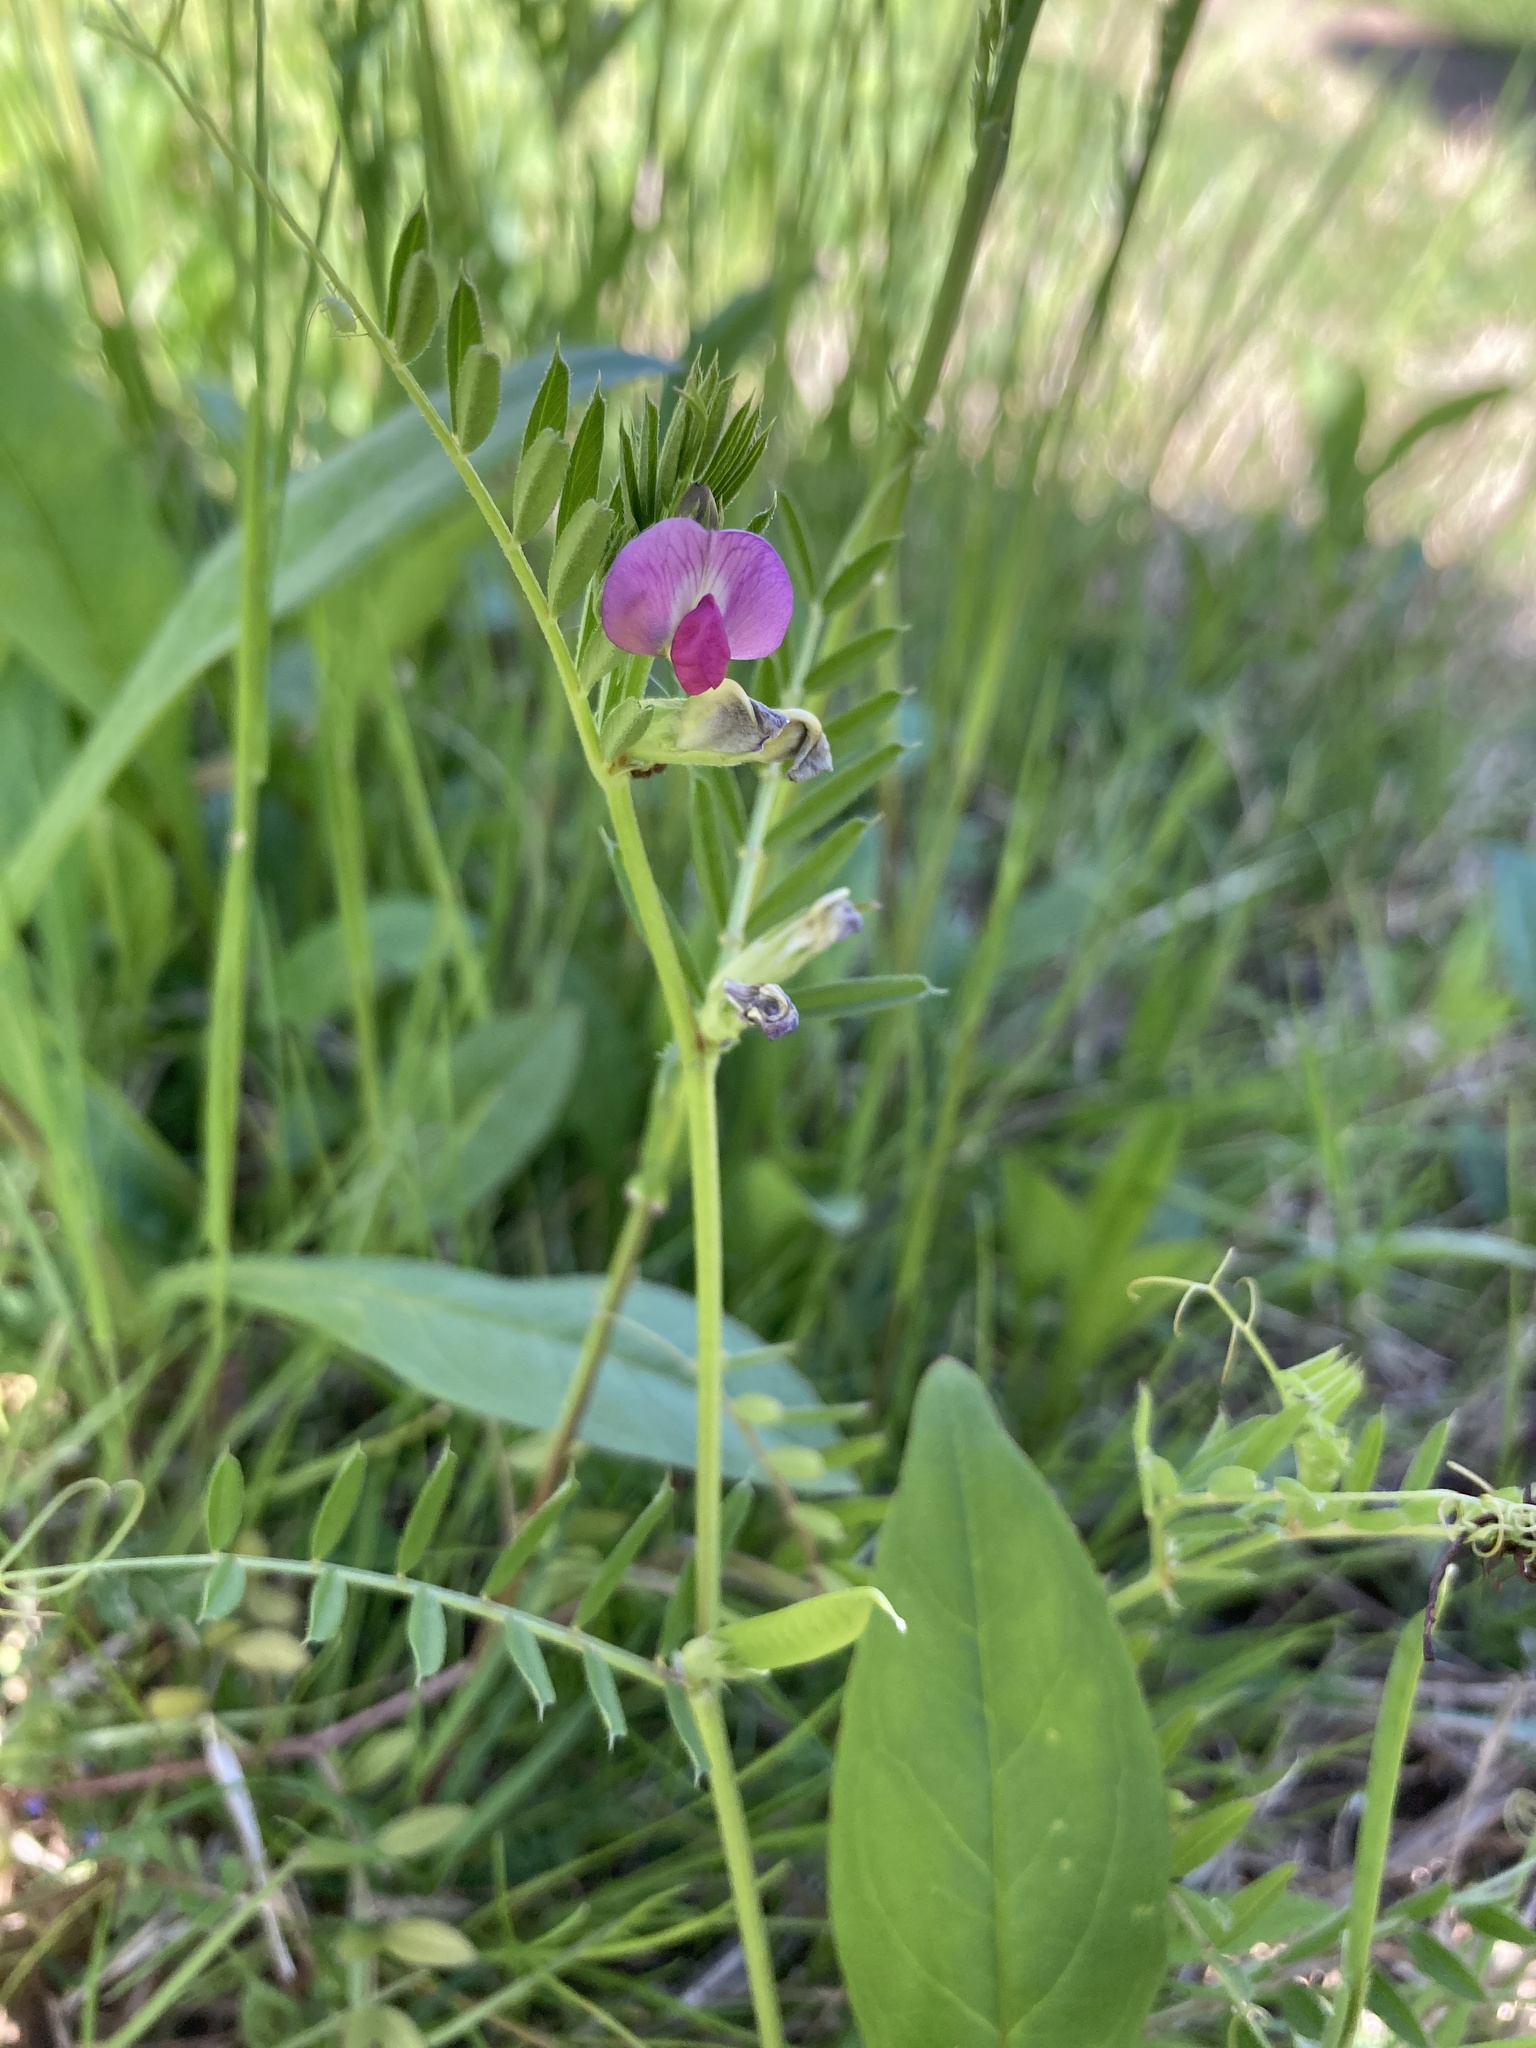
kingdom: Plantae
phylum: Tracheophyta
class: Magnoliopsida
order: Fabales
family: Fabaceae
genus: Vicia
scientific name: Vicia sativa
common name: Garden vetch
